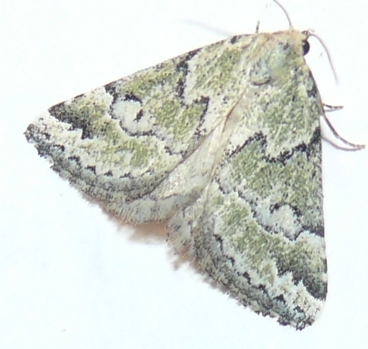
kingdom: Animalia
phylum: Arthropoda
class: Insecta
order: Lepidoptera
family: Noctuidae
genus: Cerynea
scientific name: Cerynea virescens
